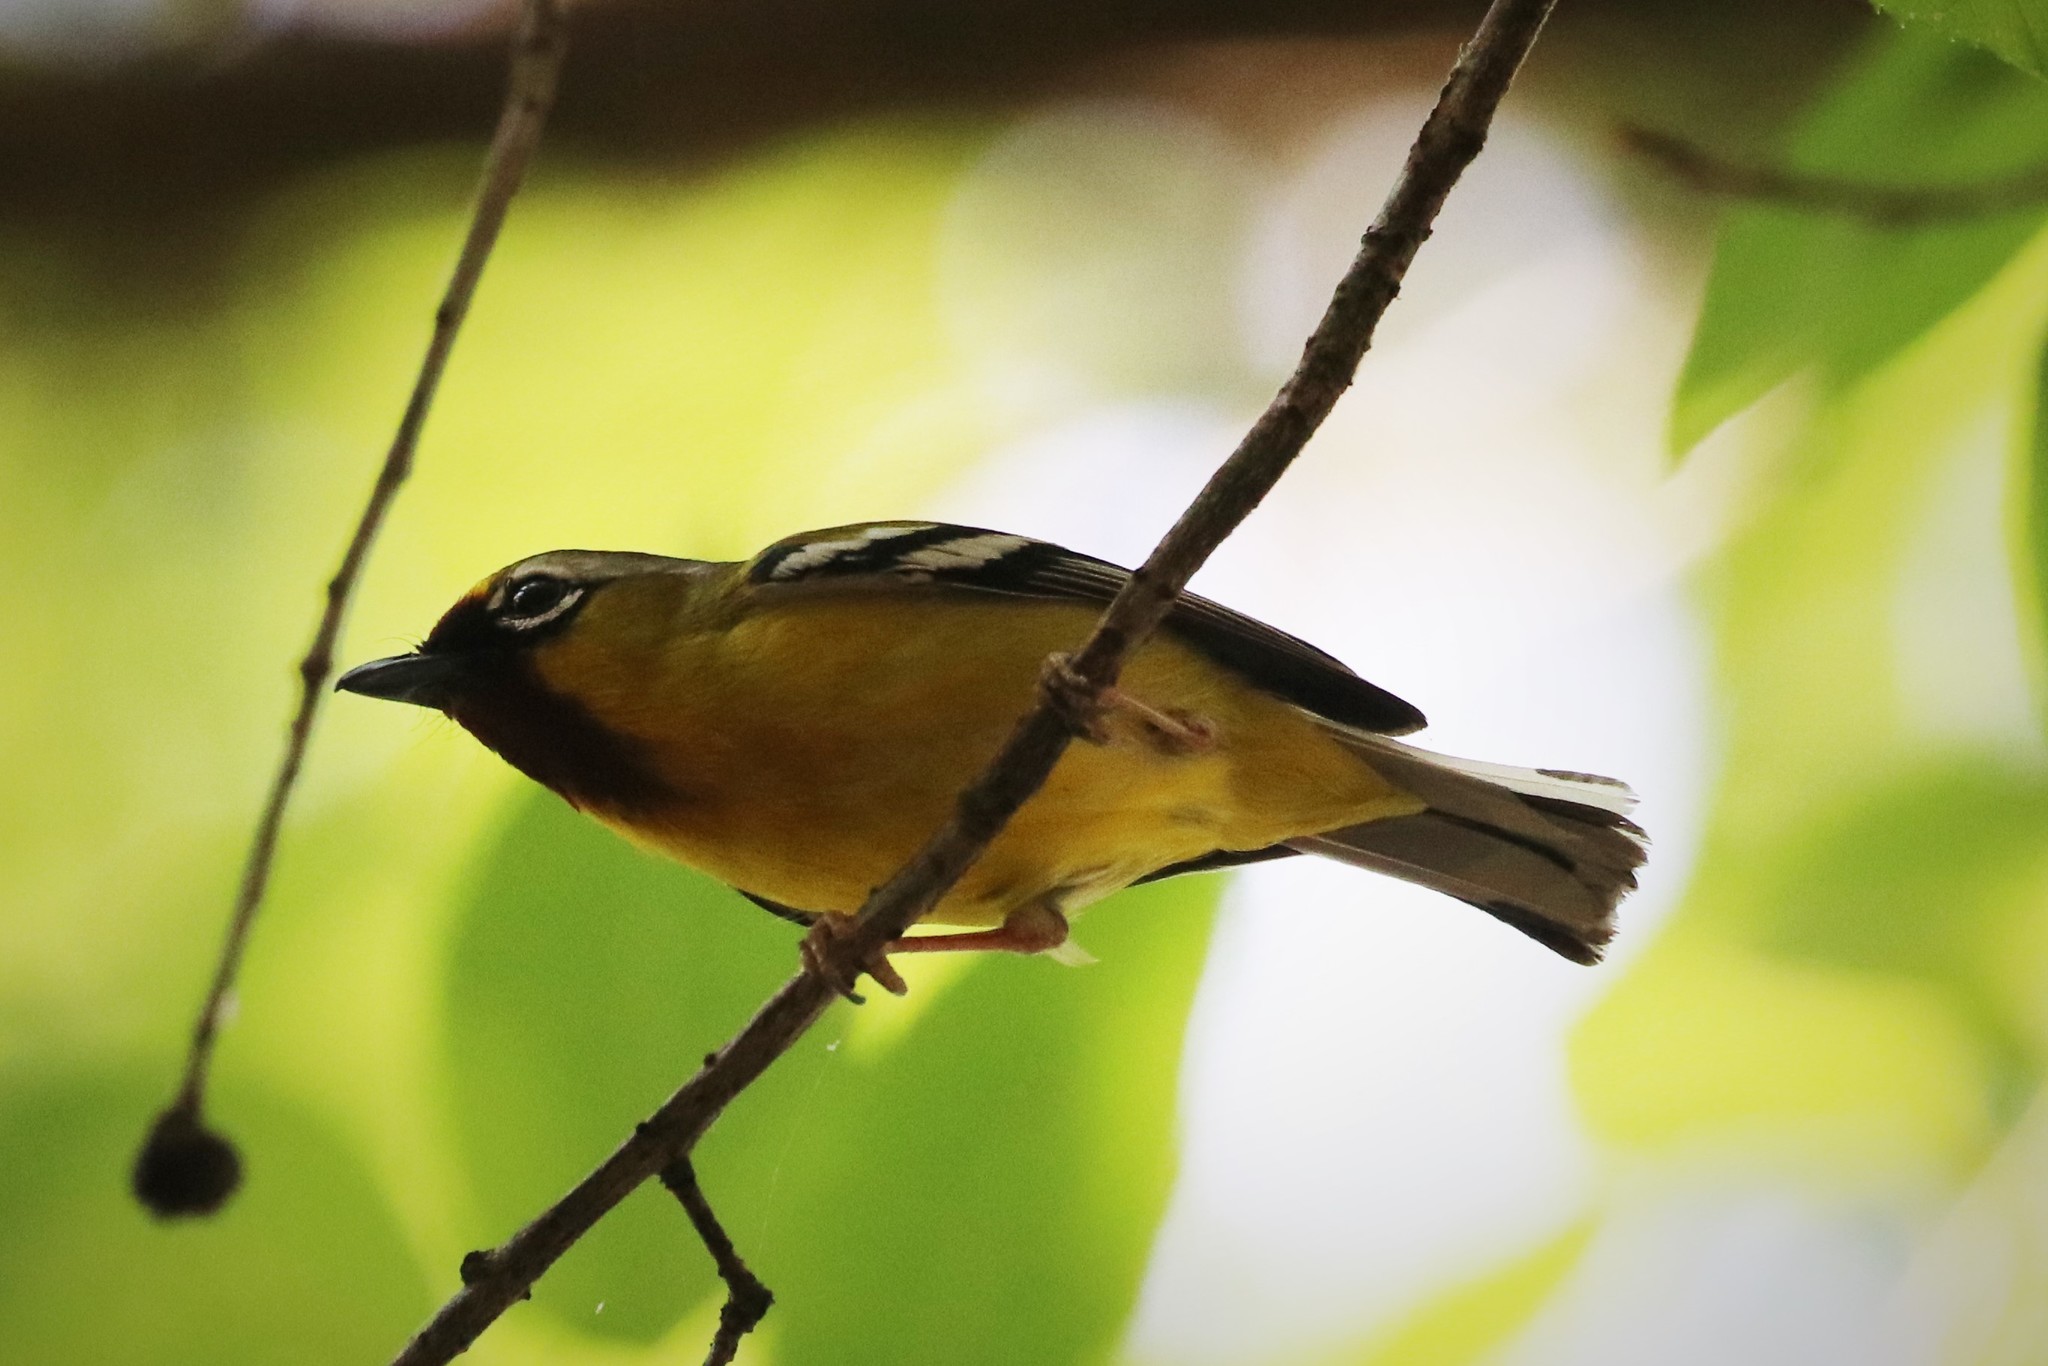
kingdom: Animalia
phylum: Chordata
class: Aves
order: Passeriformes
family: Vireonidae
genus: Pteruthius
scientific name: Pteruthius intermedius
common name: Clicking shrike-babbler
